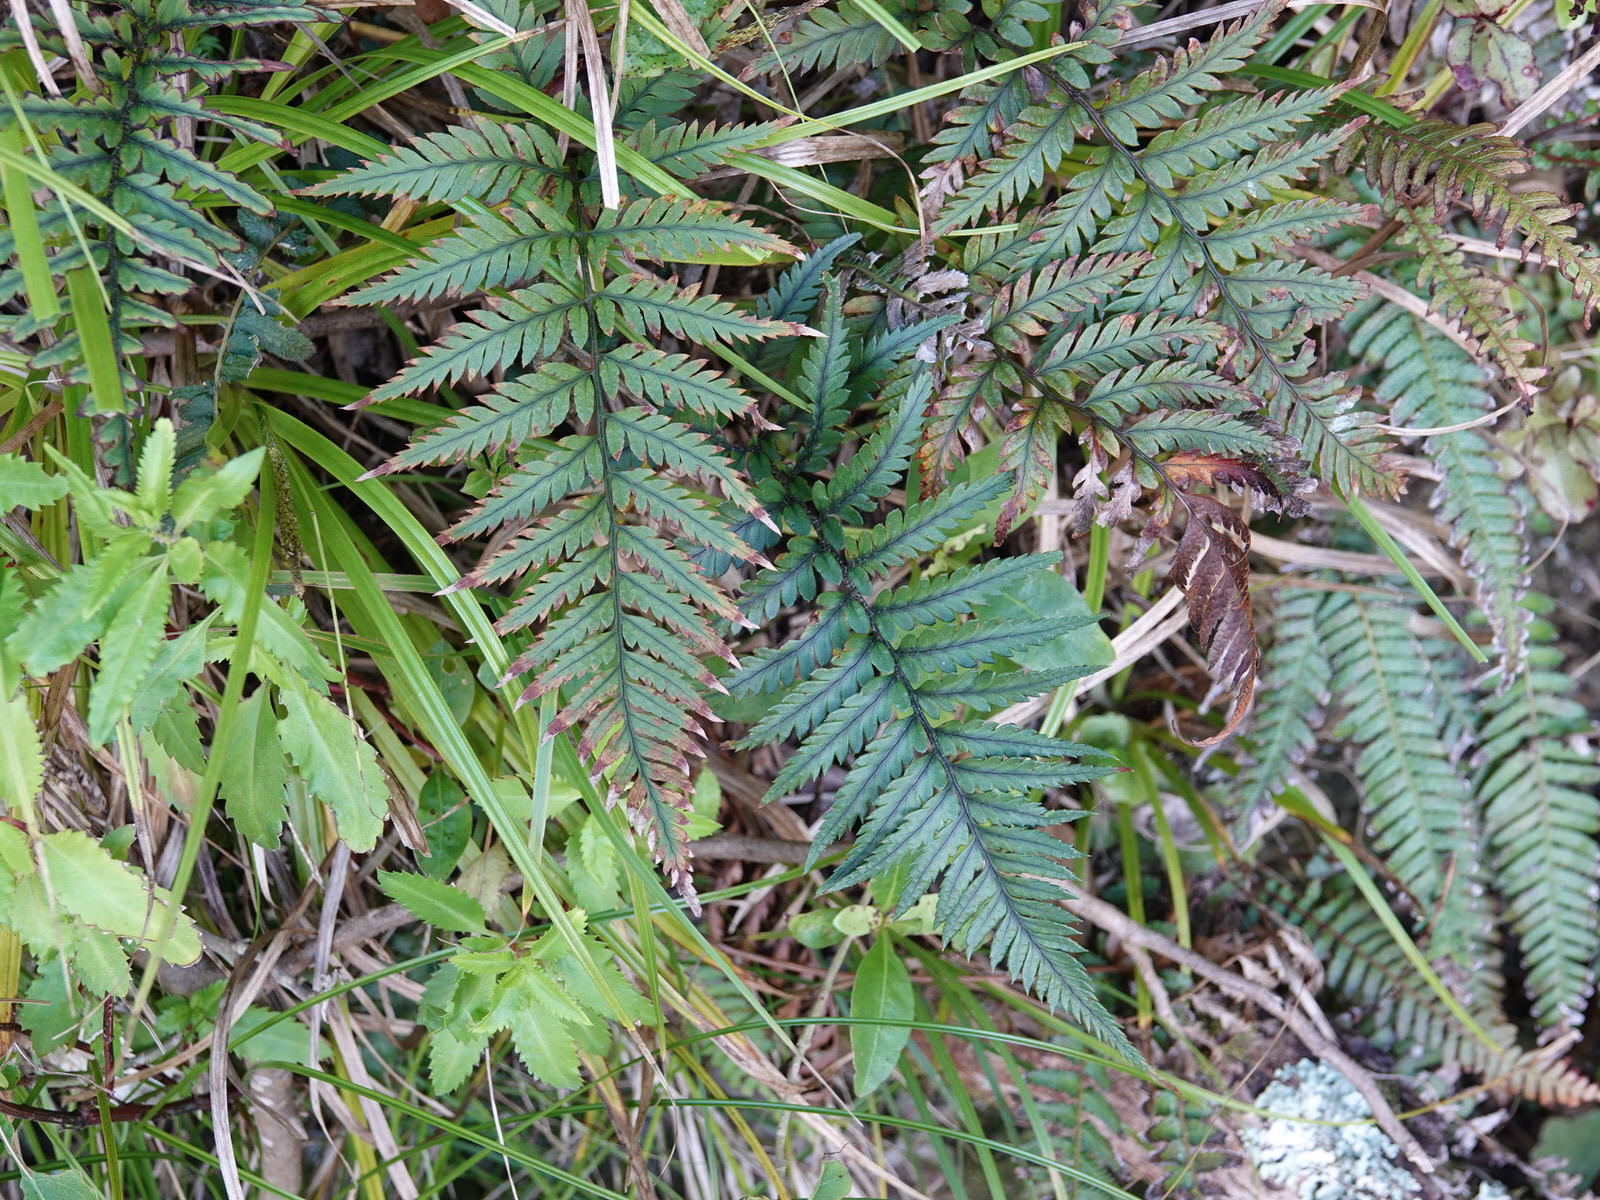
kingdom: Plantae
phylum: Tracheophyta
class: Polypodiopsida
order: Polypodiales
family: Dryopteridaceae
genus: Polystichum
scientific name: Polystichum neozelandicum
